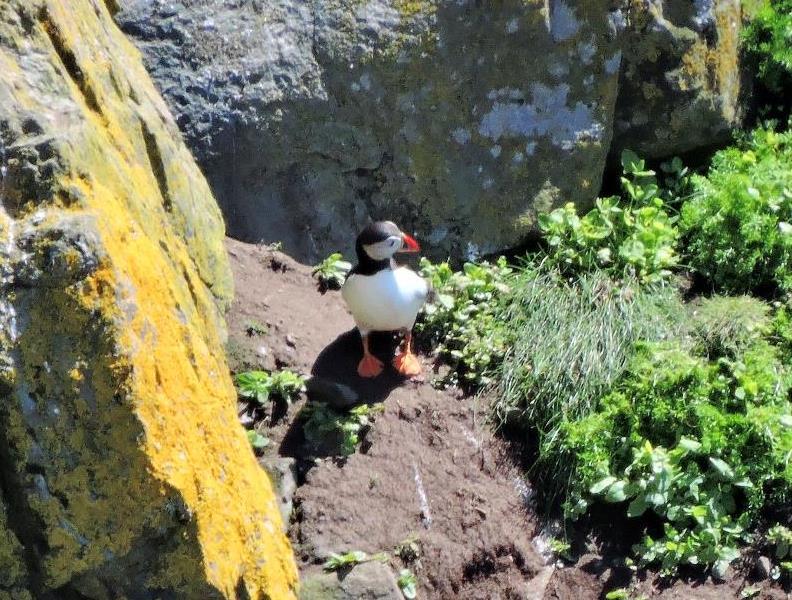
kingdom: Animalia
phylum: Chordata
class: Aves
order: Charadriiformes
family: Alcidae
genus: Fratercula
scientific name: Fratercula arctica
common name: Atlantic puffin
